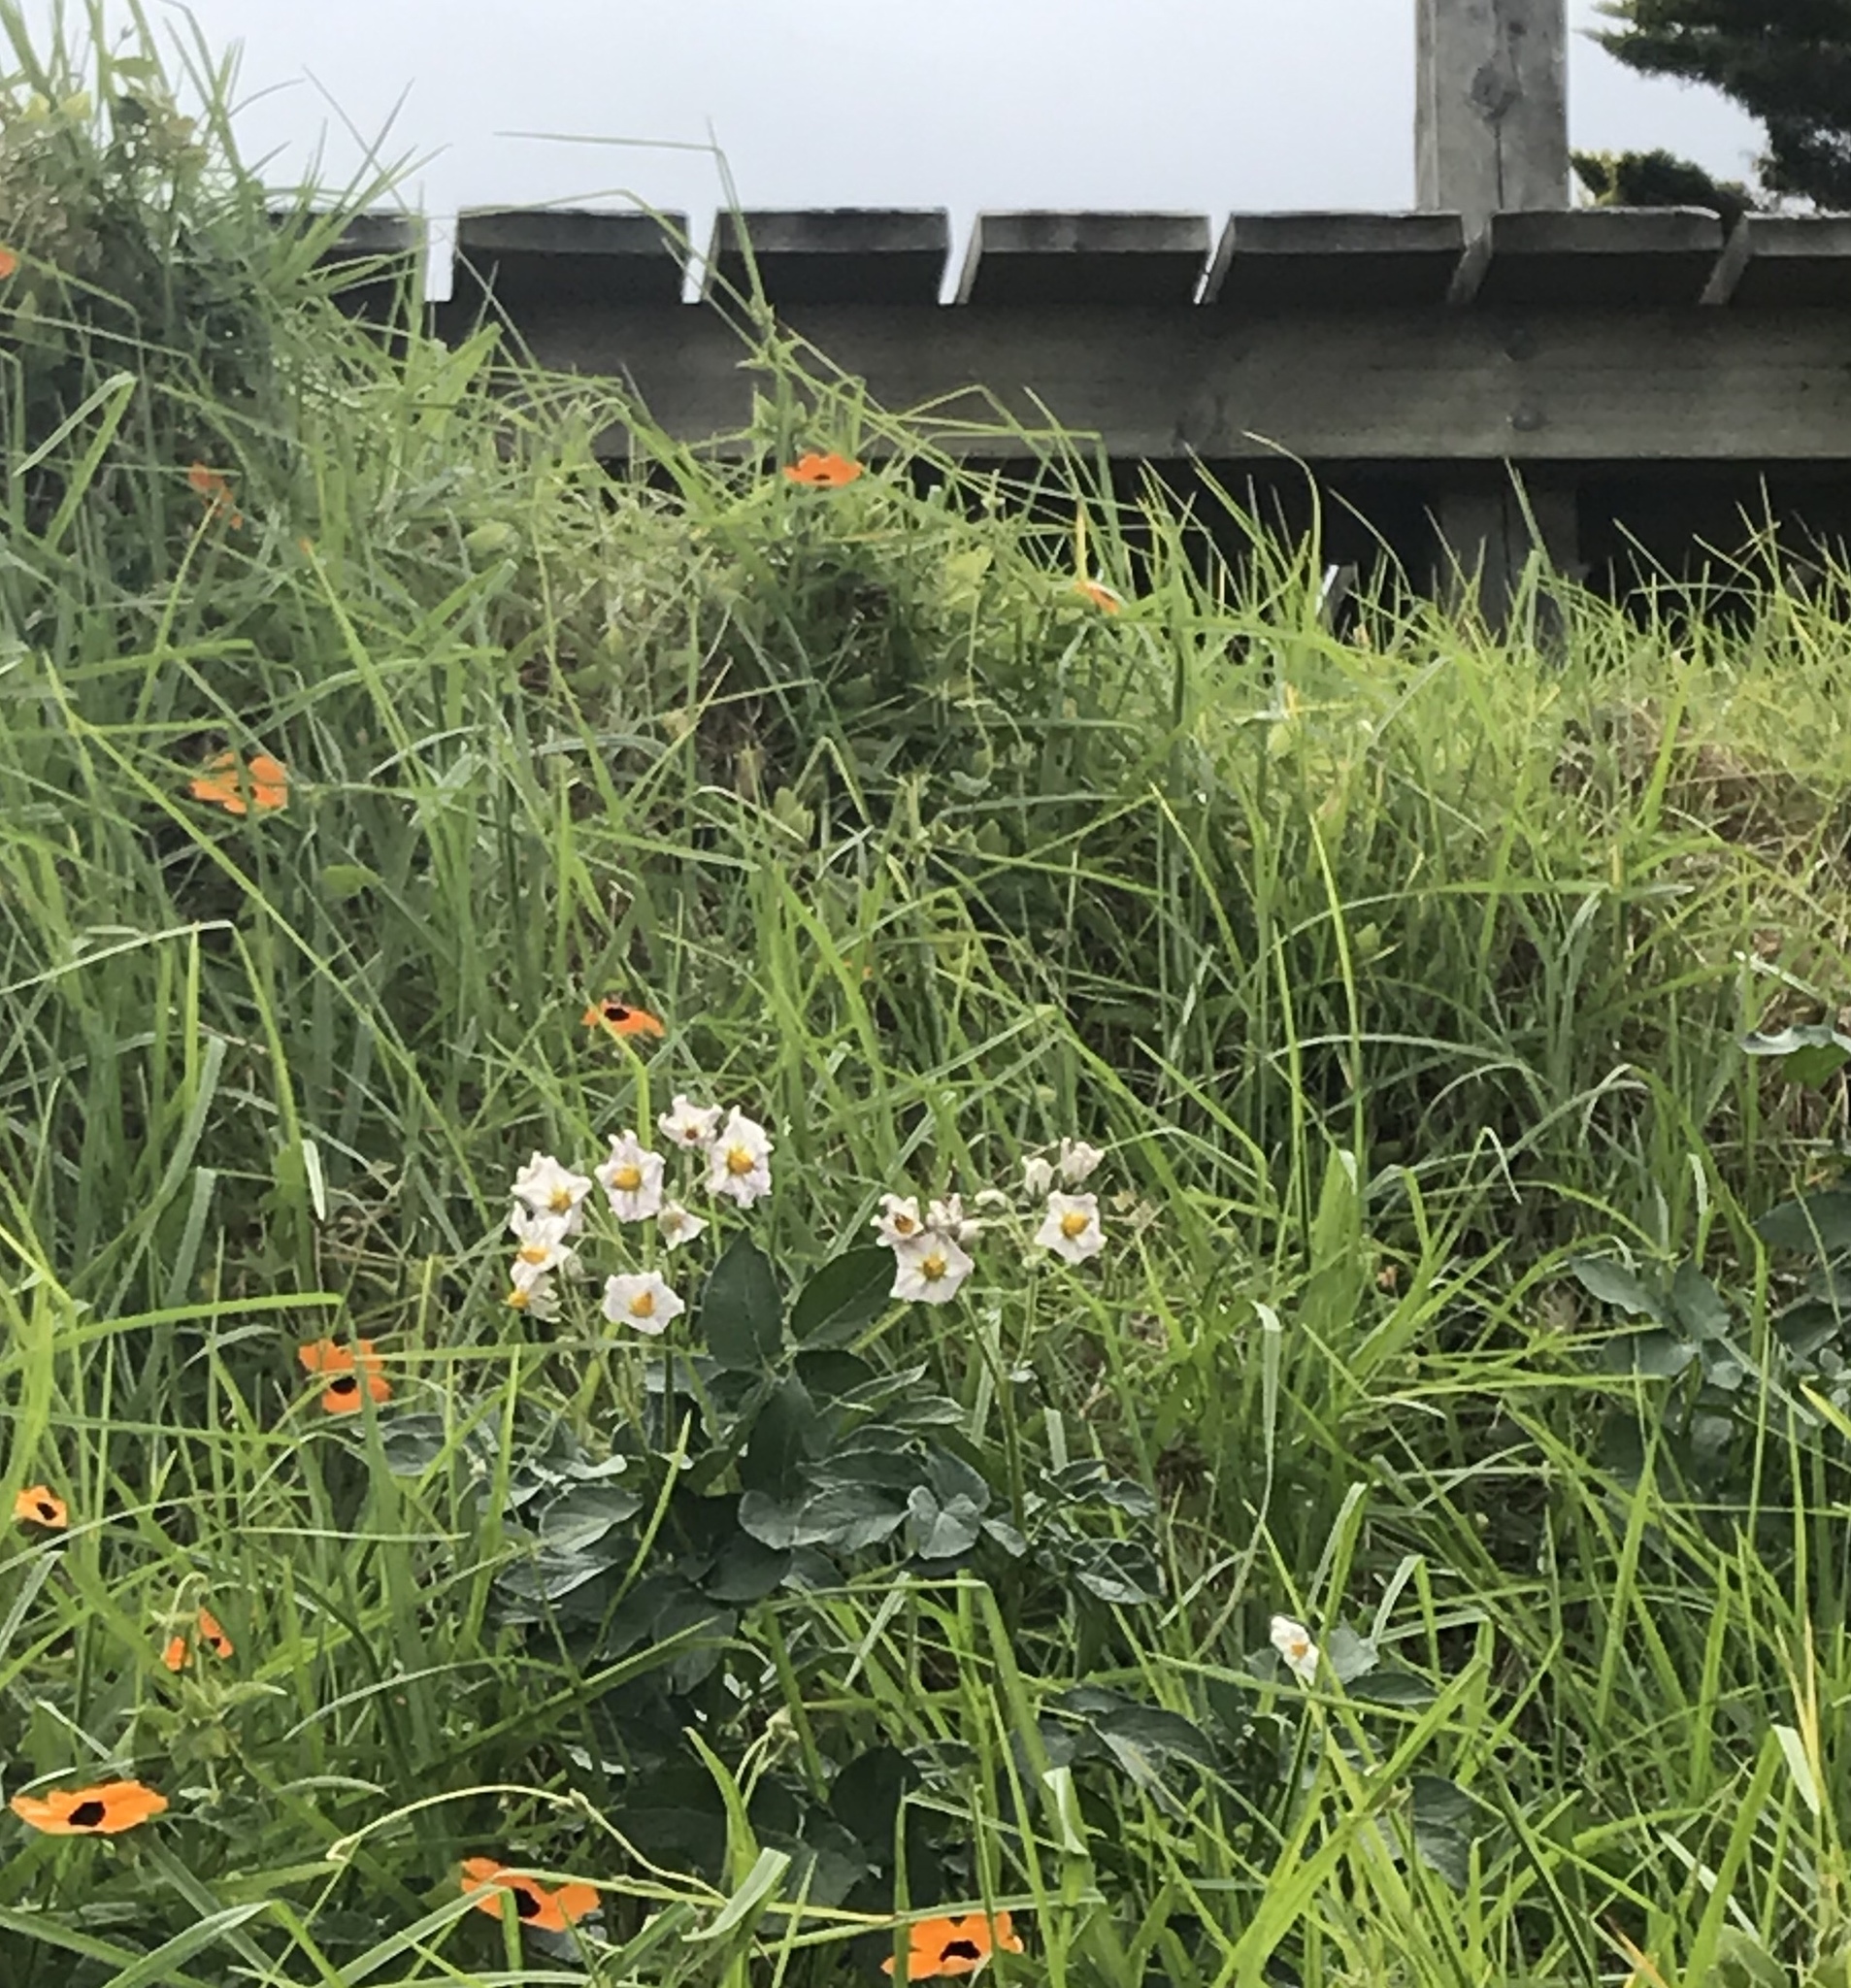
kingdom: Plantae
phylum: Tracheophyta
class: Magnoliopsida
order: Solanales
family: Solanaceae
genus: Solanum
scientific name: Solanum tuberosum
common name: Potato
